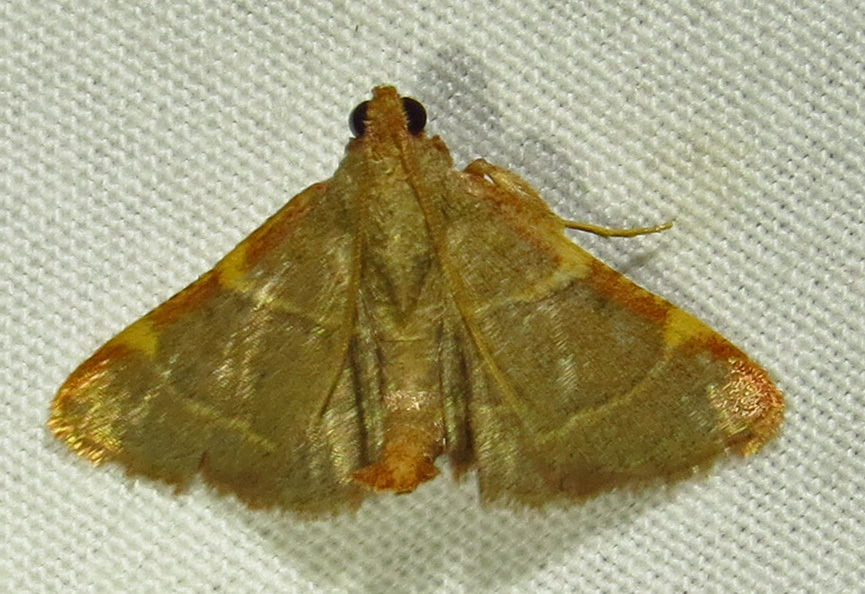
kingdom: Animalia
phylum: Arthropoda
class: Insecta
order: Lepidoptera
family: Pyralidae
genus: Hypsopygia
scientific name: Hypsopygia binodulalis
